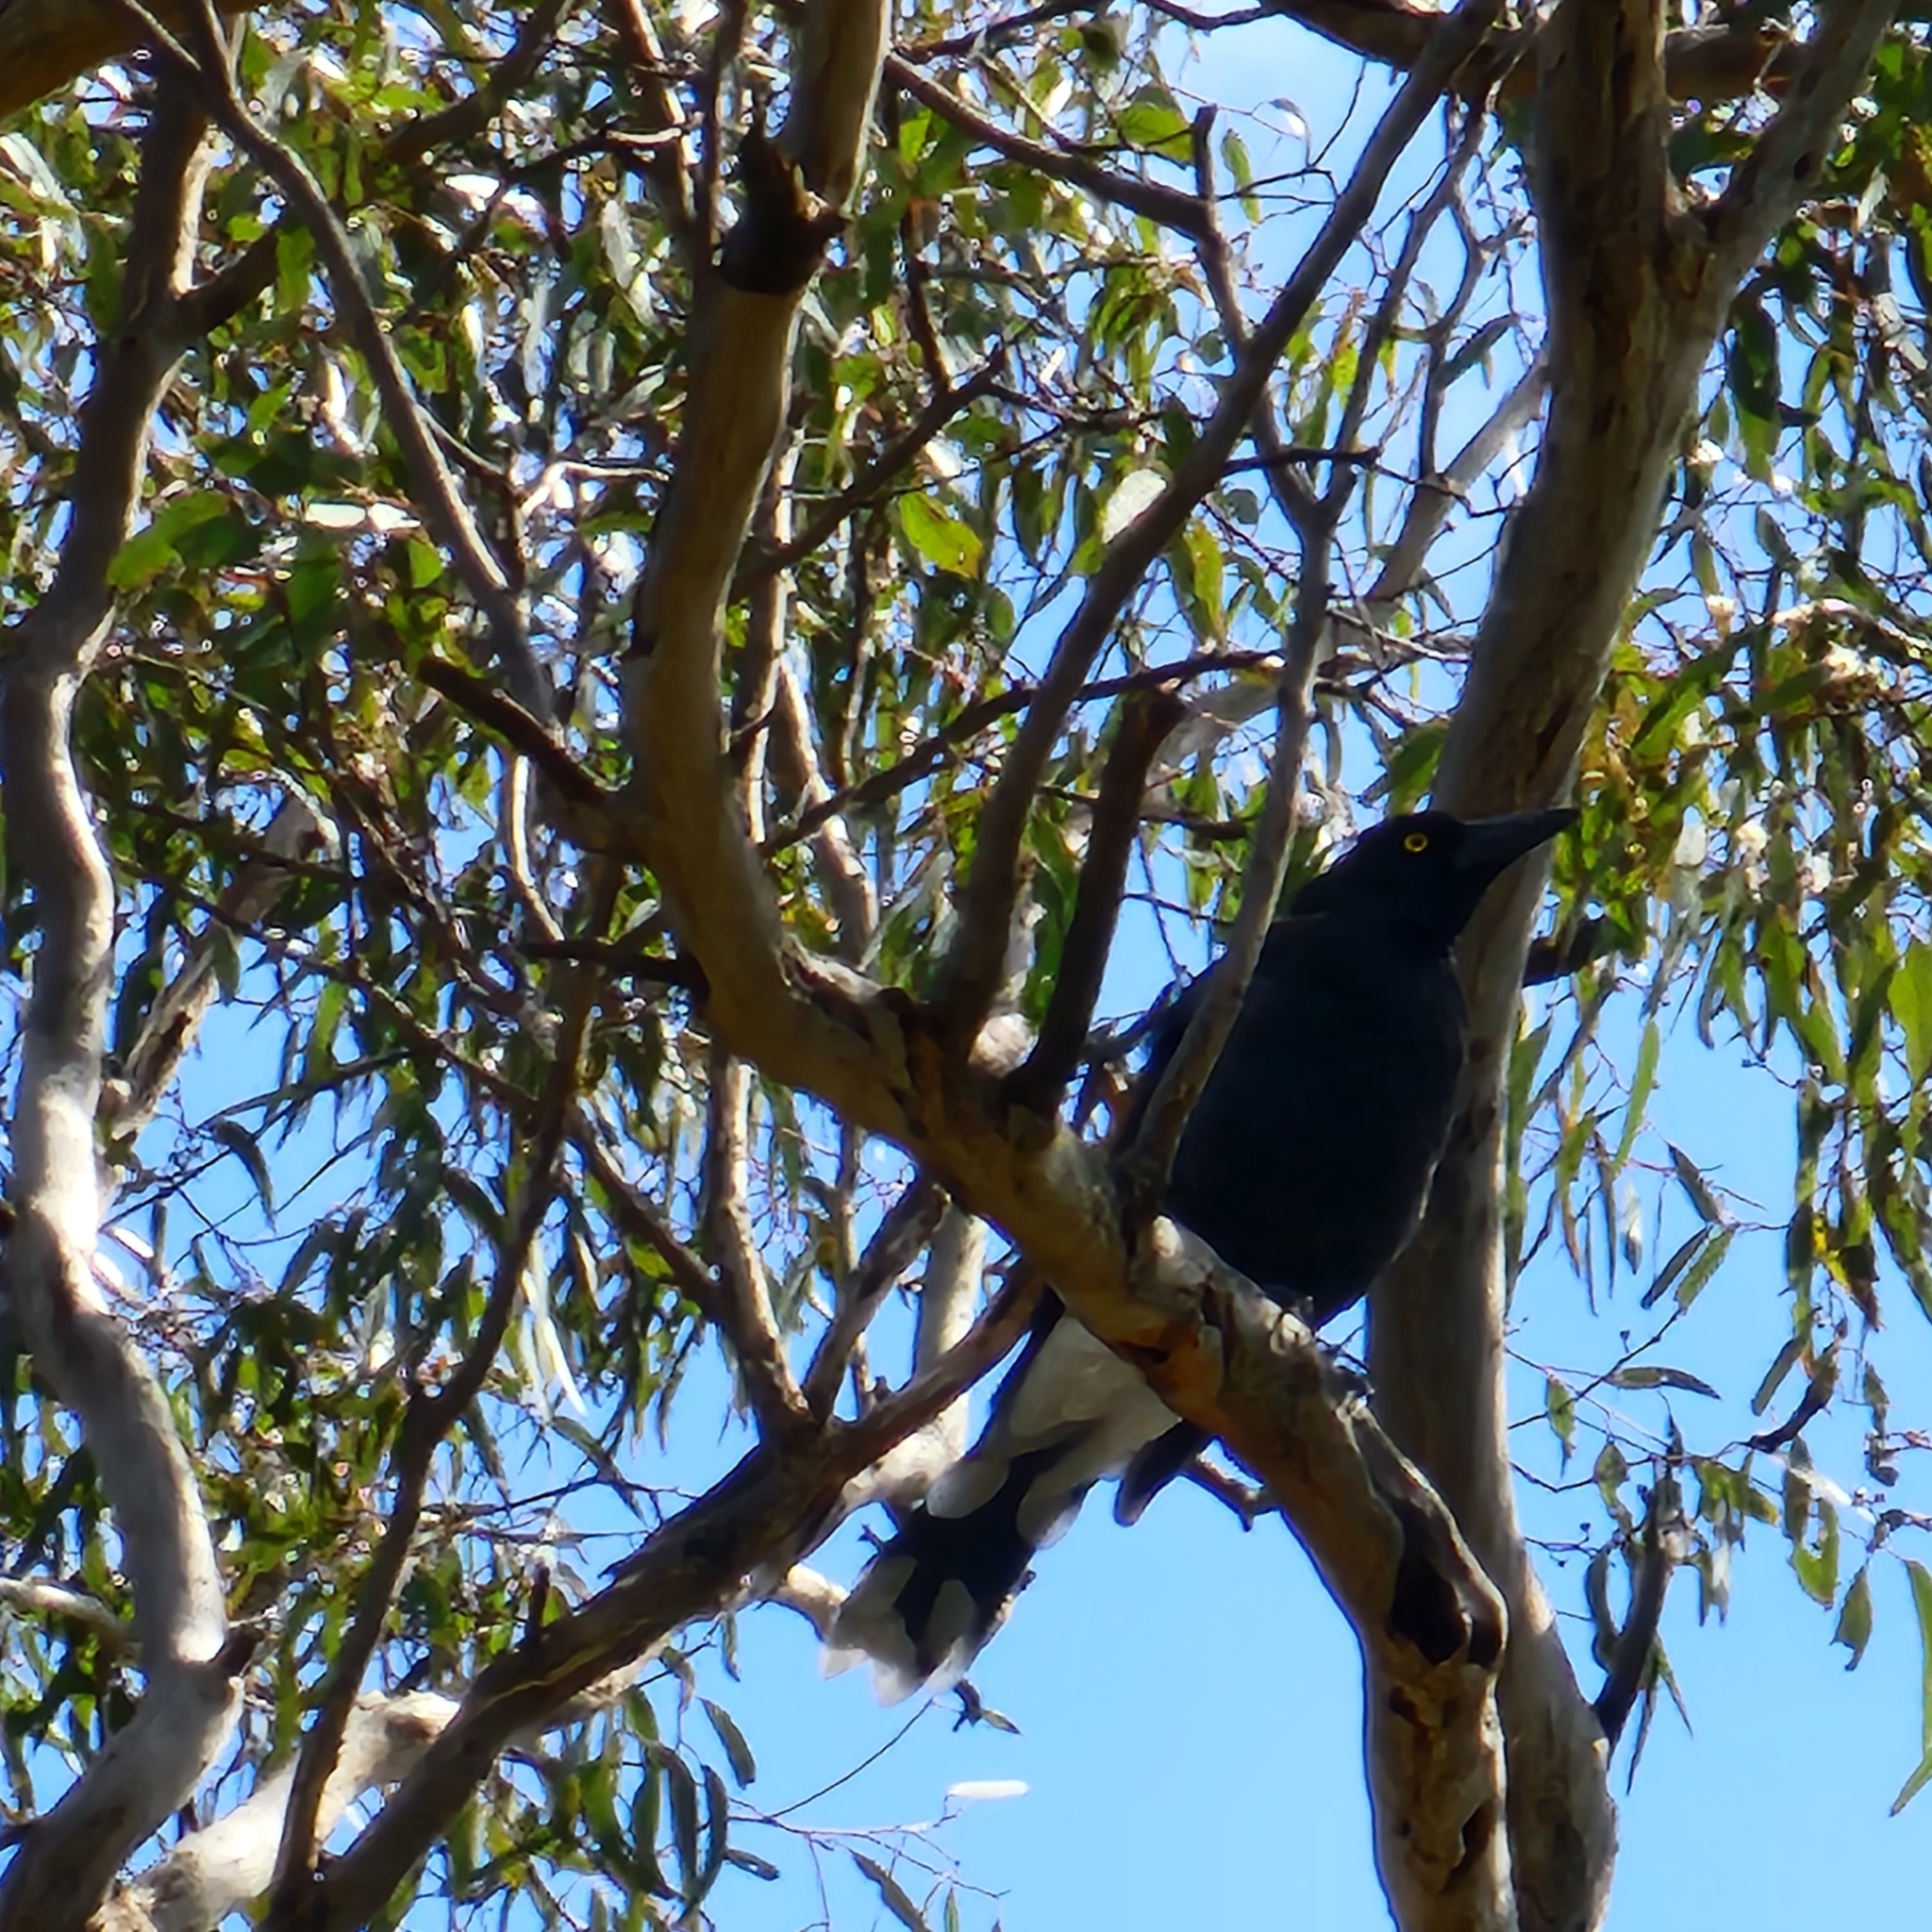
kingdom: Animalia
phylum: Chordata
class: Aves
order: Passeriformes
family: Cracticidae
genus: Strepera
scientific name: Strepera versicolor
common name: Grey currawong
